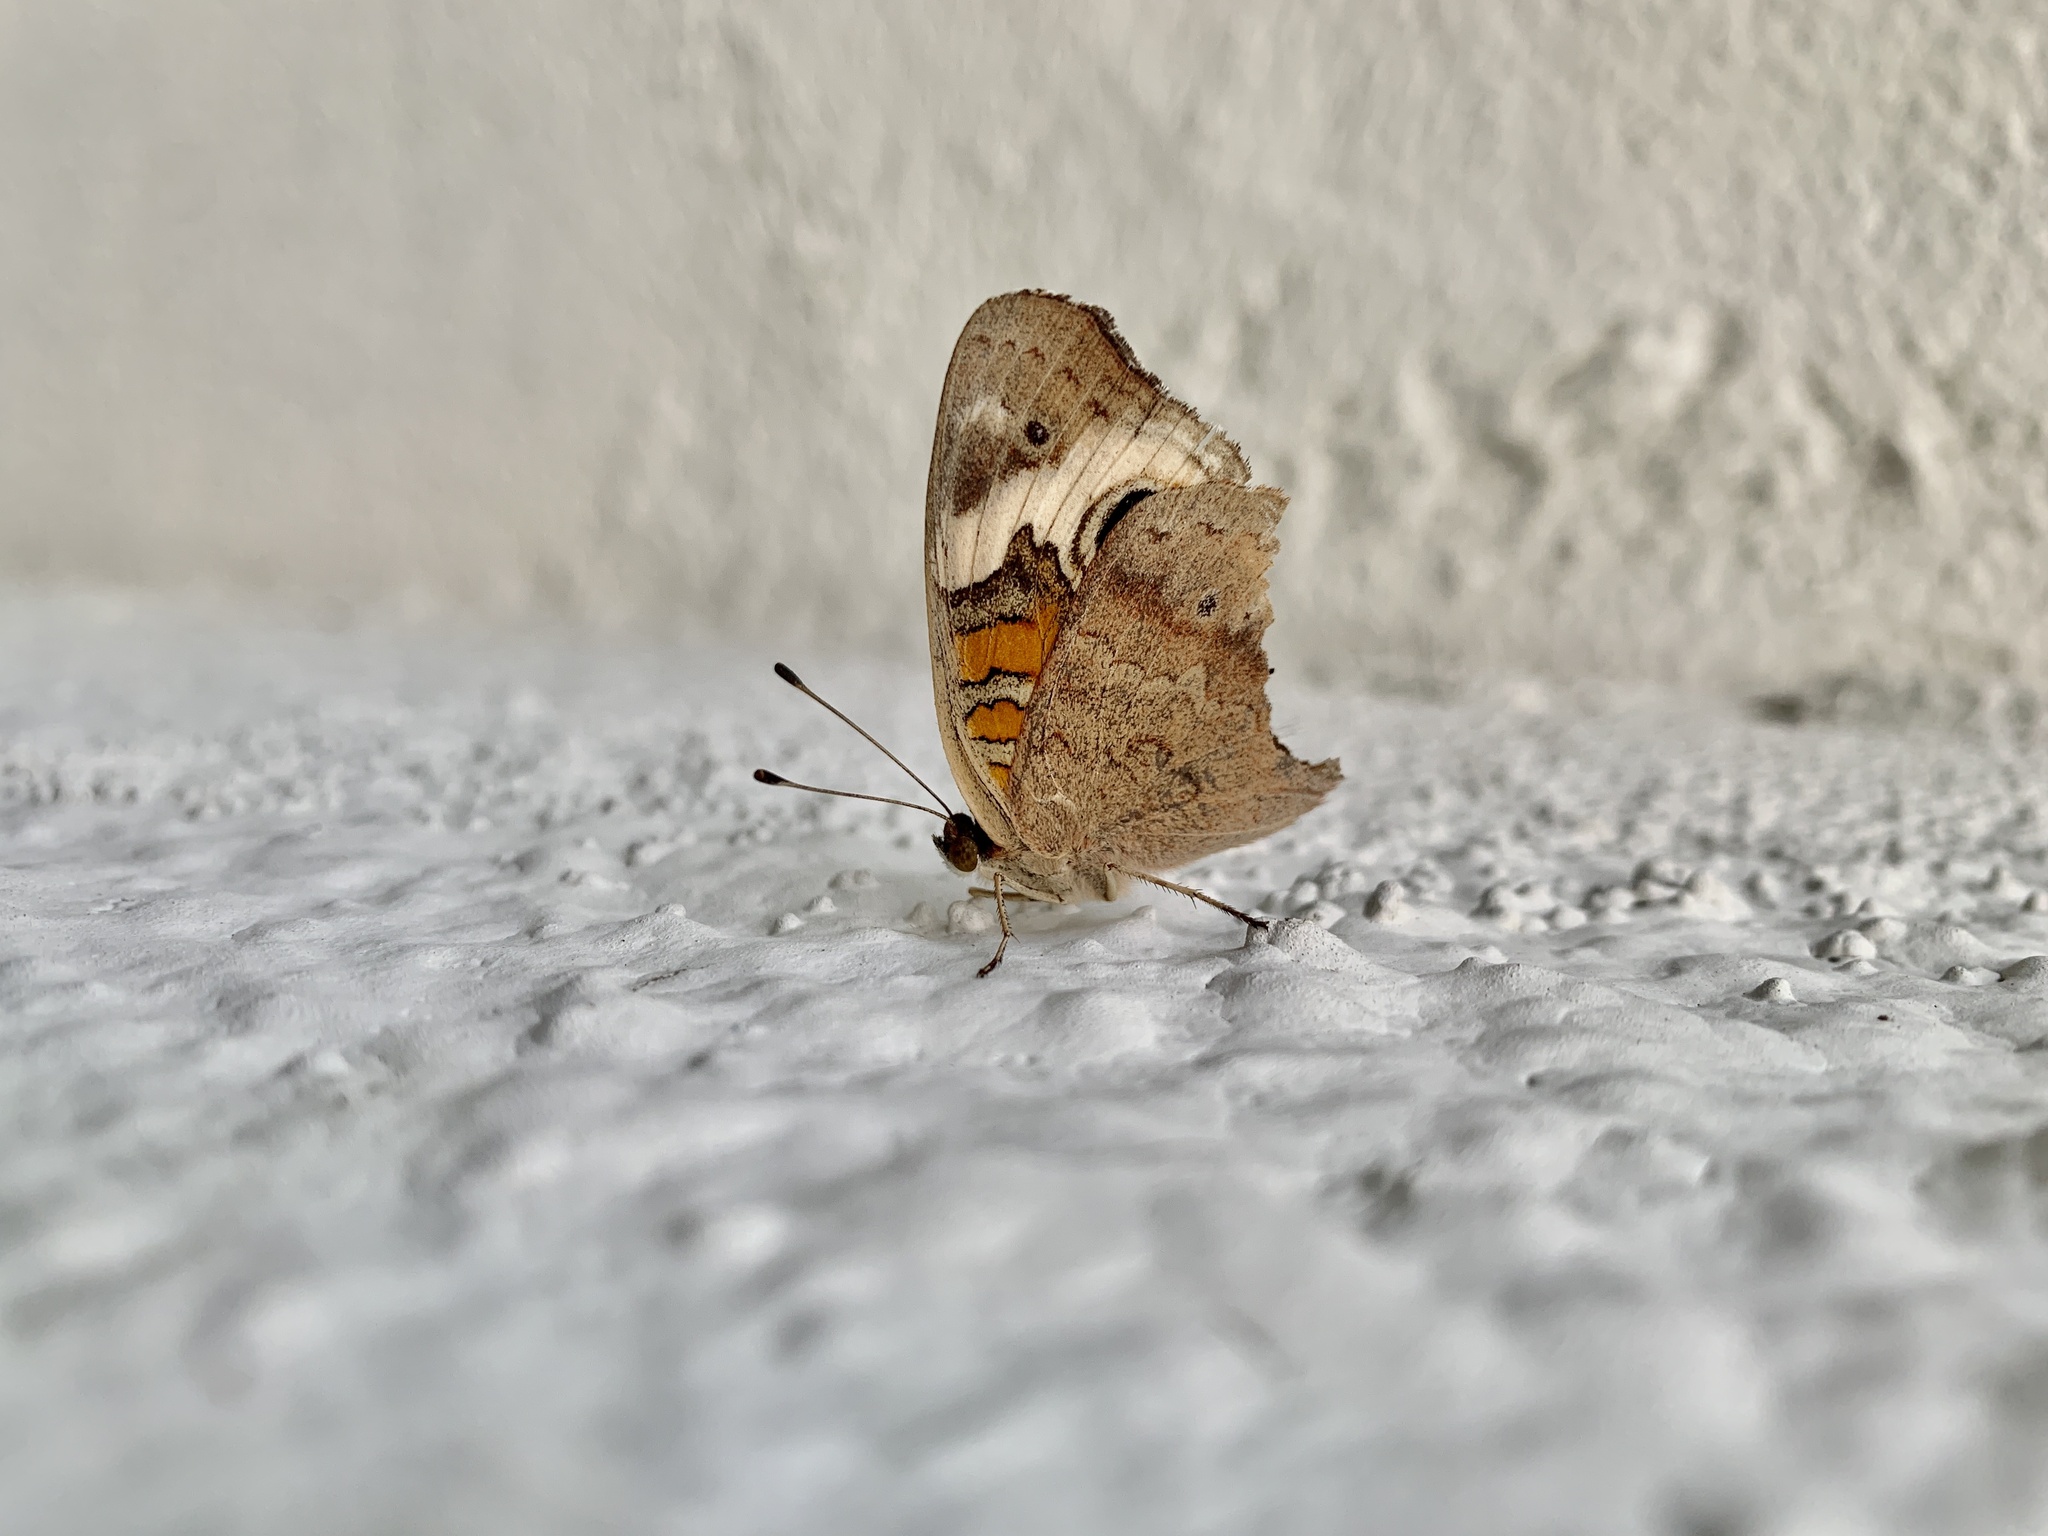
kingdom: Animalia
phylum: Arthropoda
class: Insecta
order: Lepidoptera
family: Nymphalidae
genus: Junonia
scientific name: Junonia coenia
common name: Common buckeye
